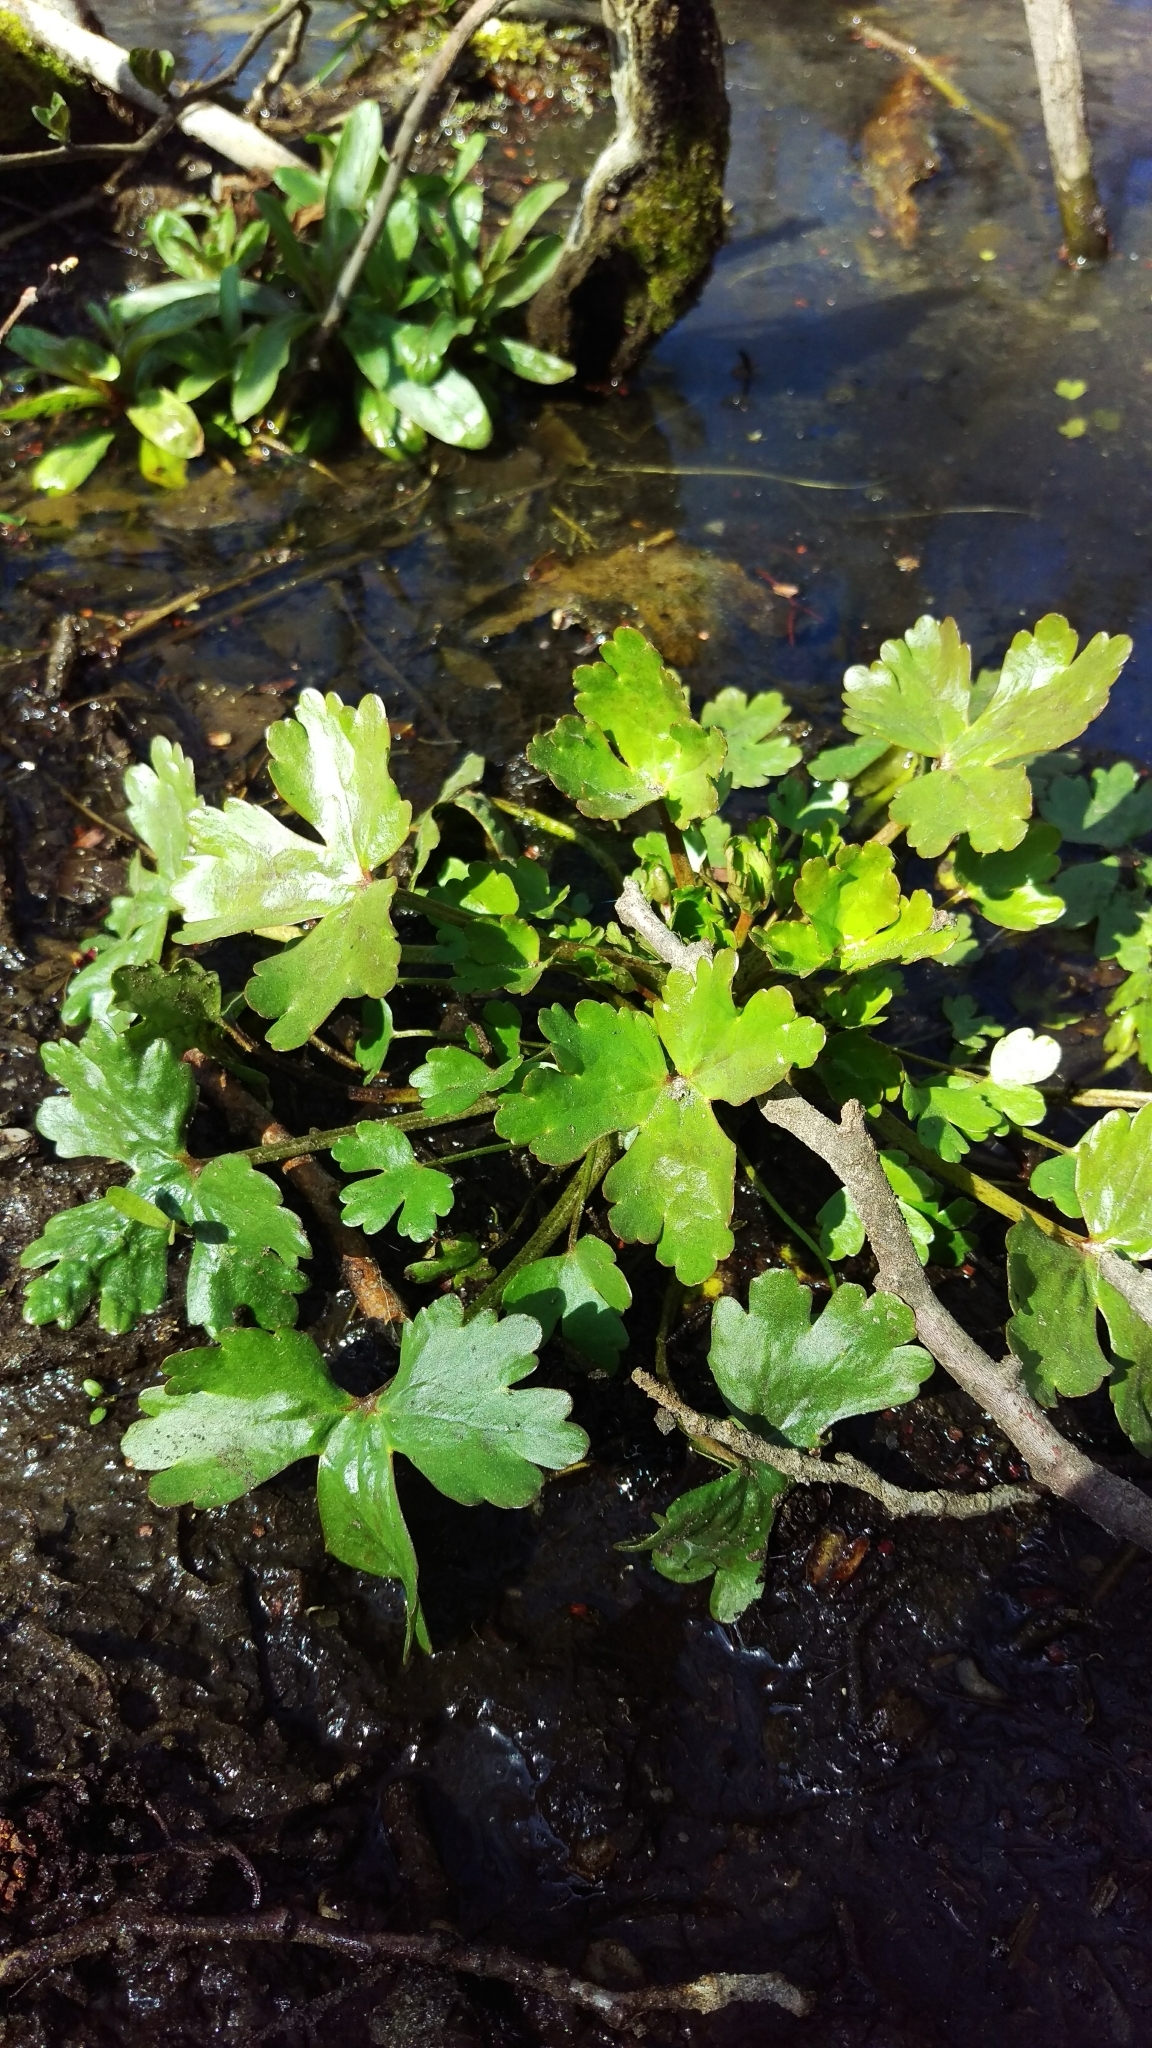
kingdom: Plantae
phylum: Tracheophyta
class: Magnoliopsida
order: Ranunculales
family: Ranunculaceae
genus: Ranunculus
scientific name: Ranunculus sceleratus
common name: Celery-leaved buttercup
